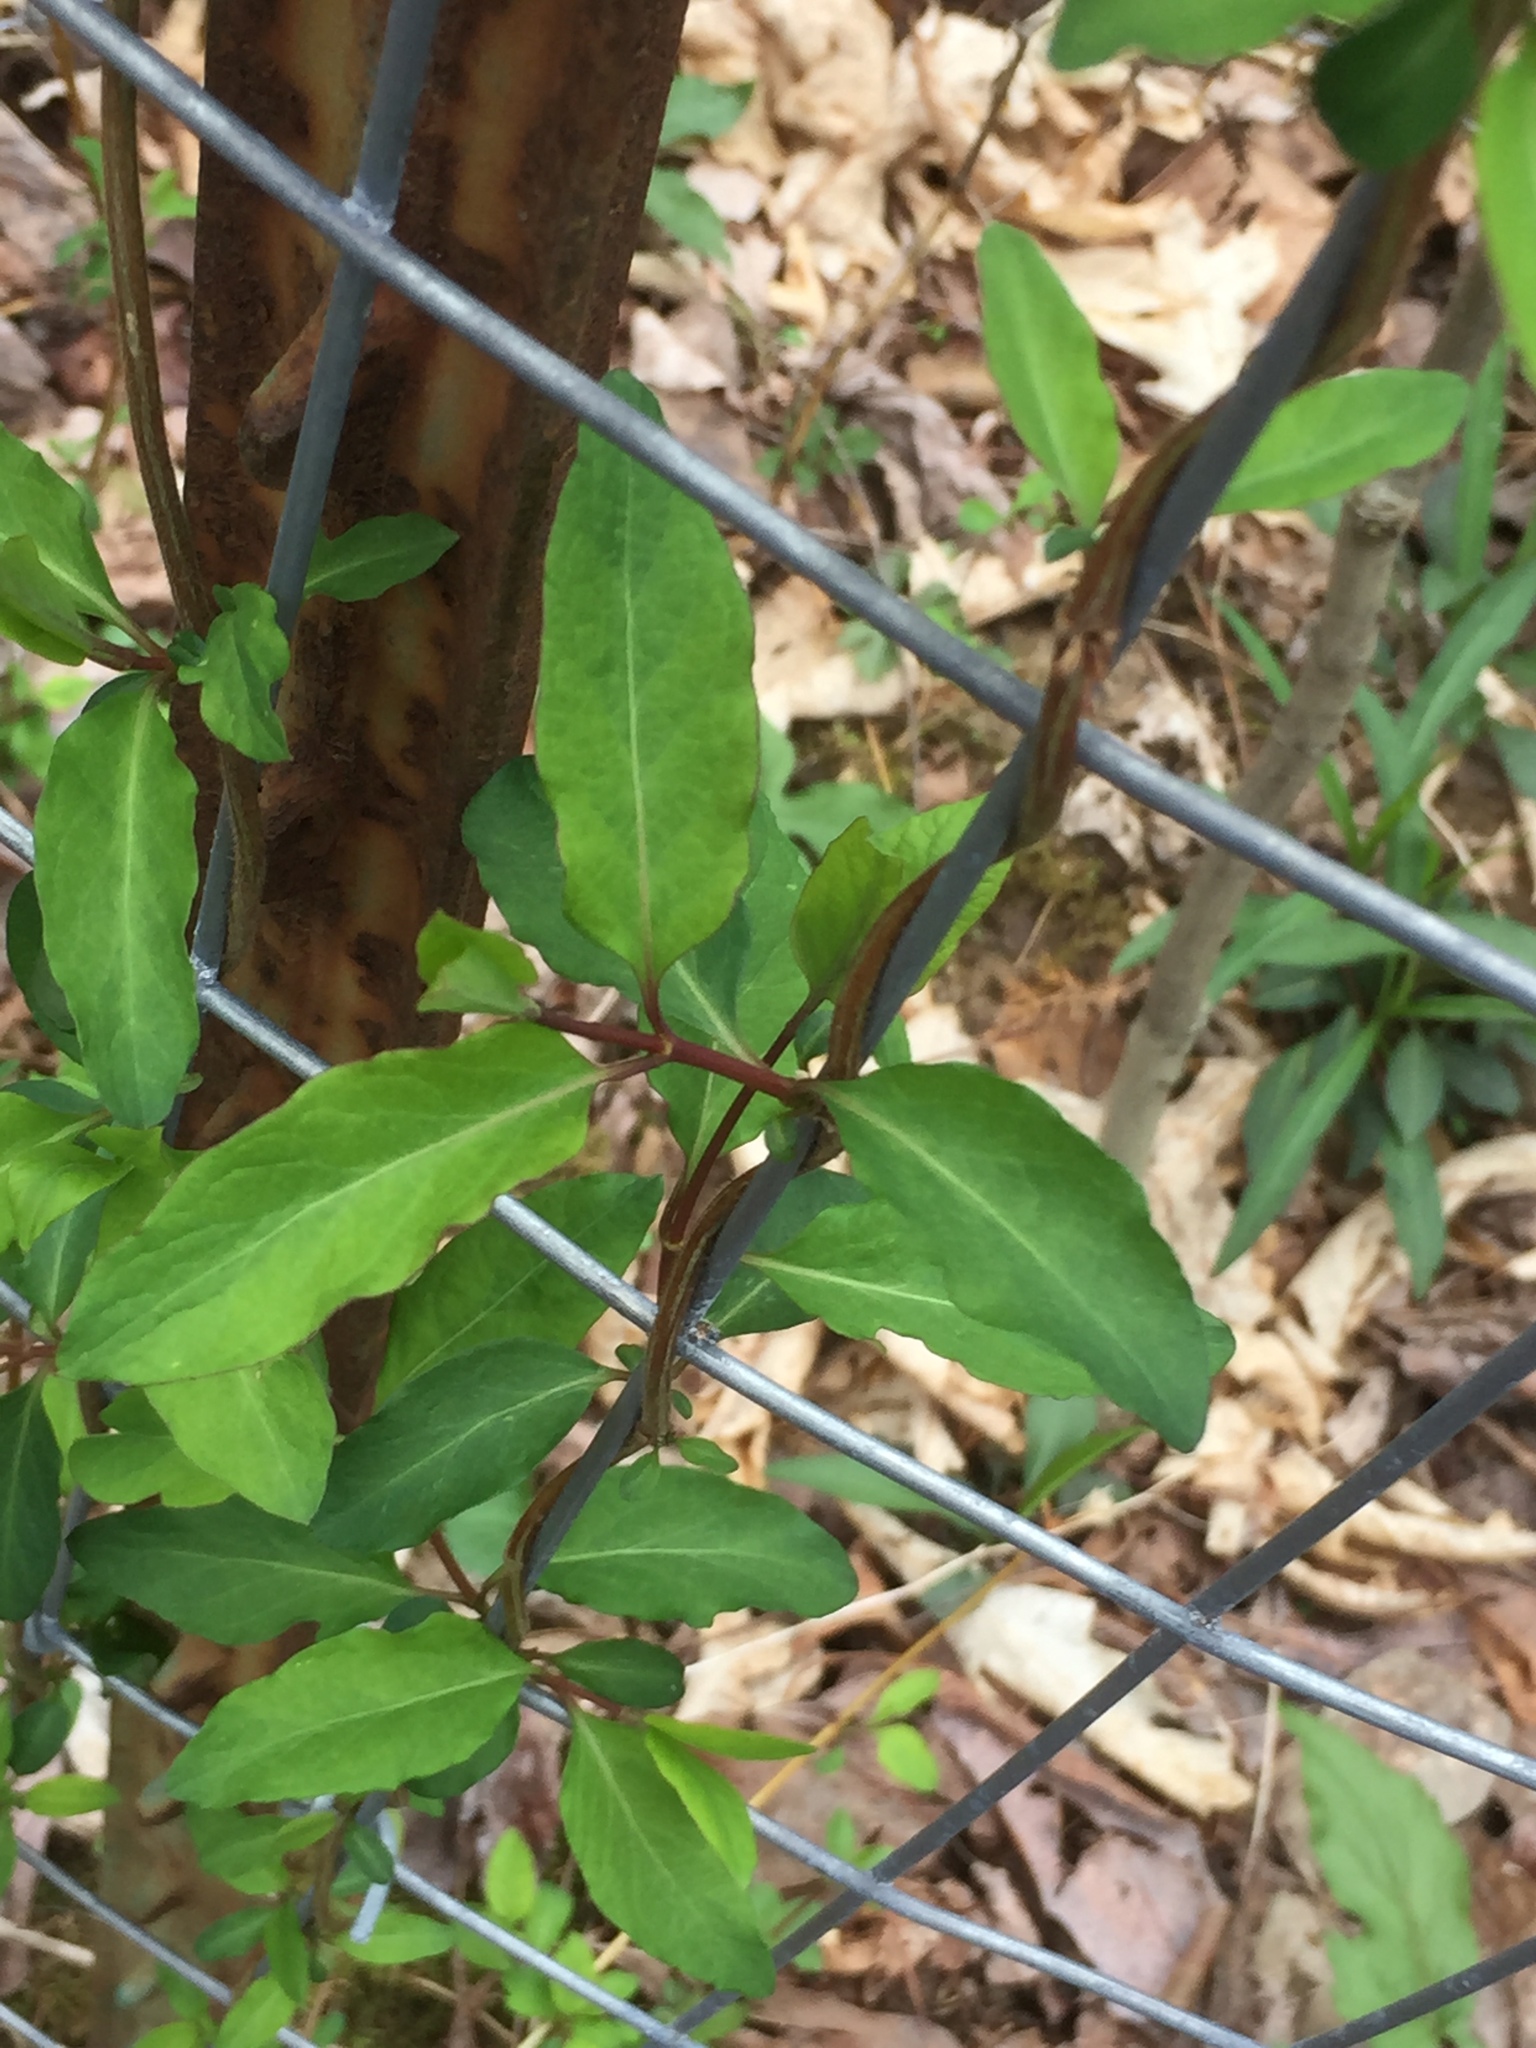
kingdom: Plantae
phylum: Tracheophyta
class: Magnoliopsida
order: Dipsacales
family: Caprifoliaceae
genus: Lonicera
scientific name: Lonicera japonica
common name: Japanese honeysuckle
